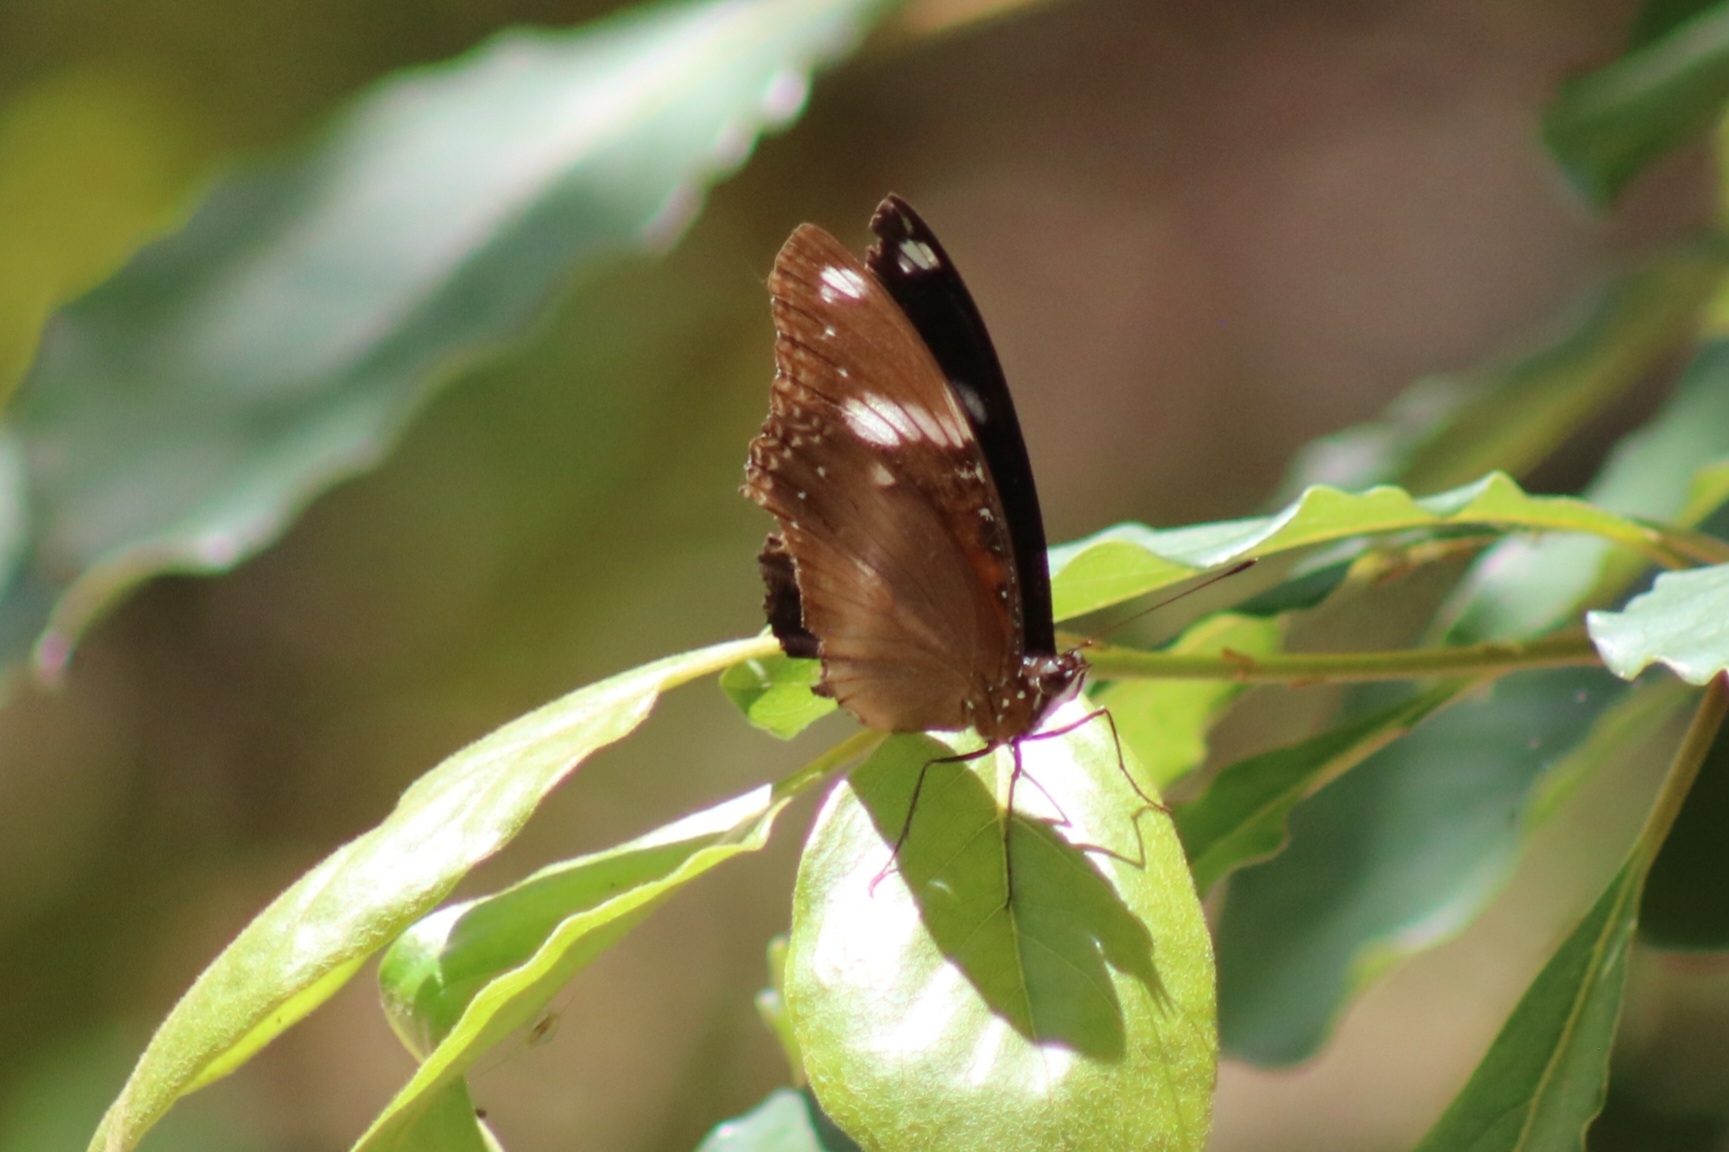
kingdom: Animalia
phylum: Arthropoda
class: Insecta
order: Lepidoptera
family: Nymphalidae
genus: Hypolimnas
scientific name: Hypolimnas bolina
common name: Great eggfly
